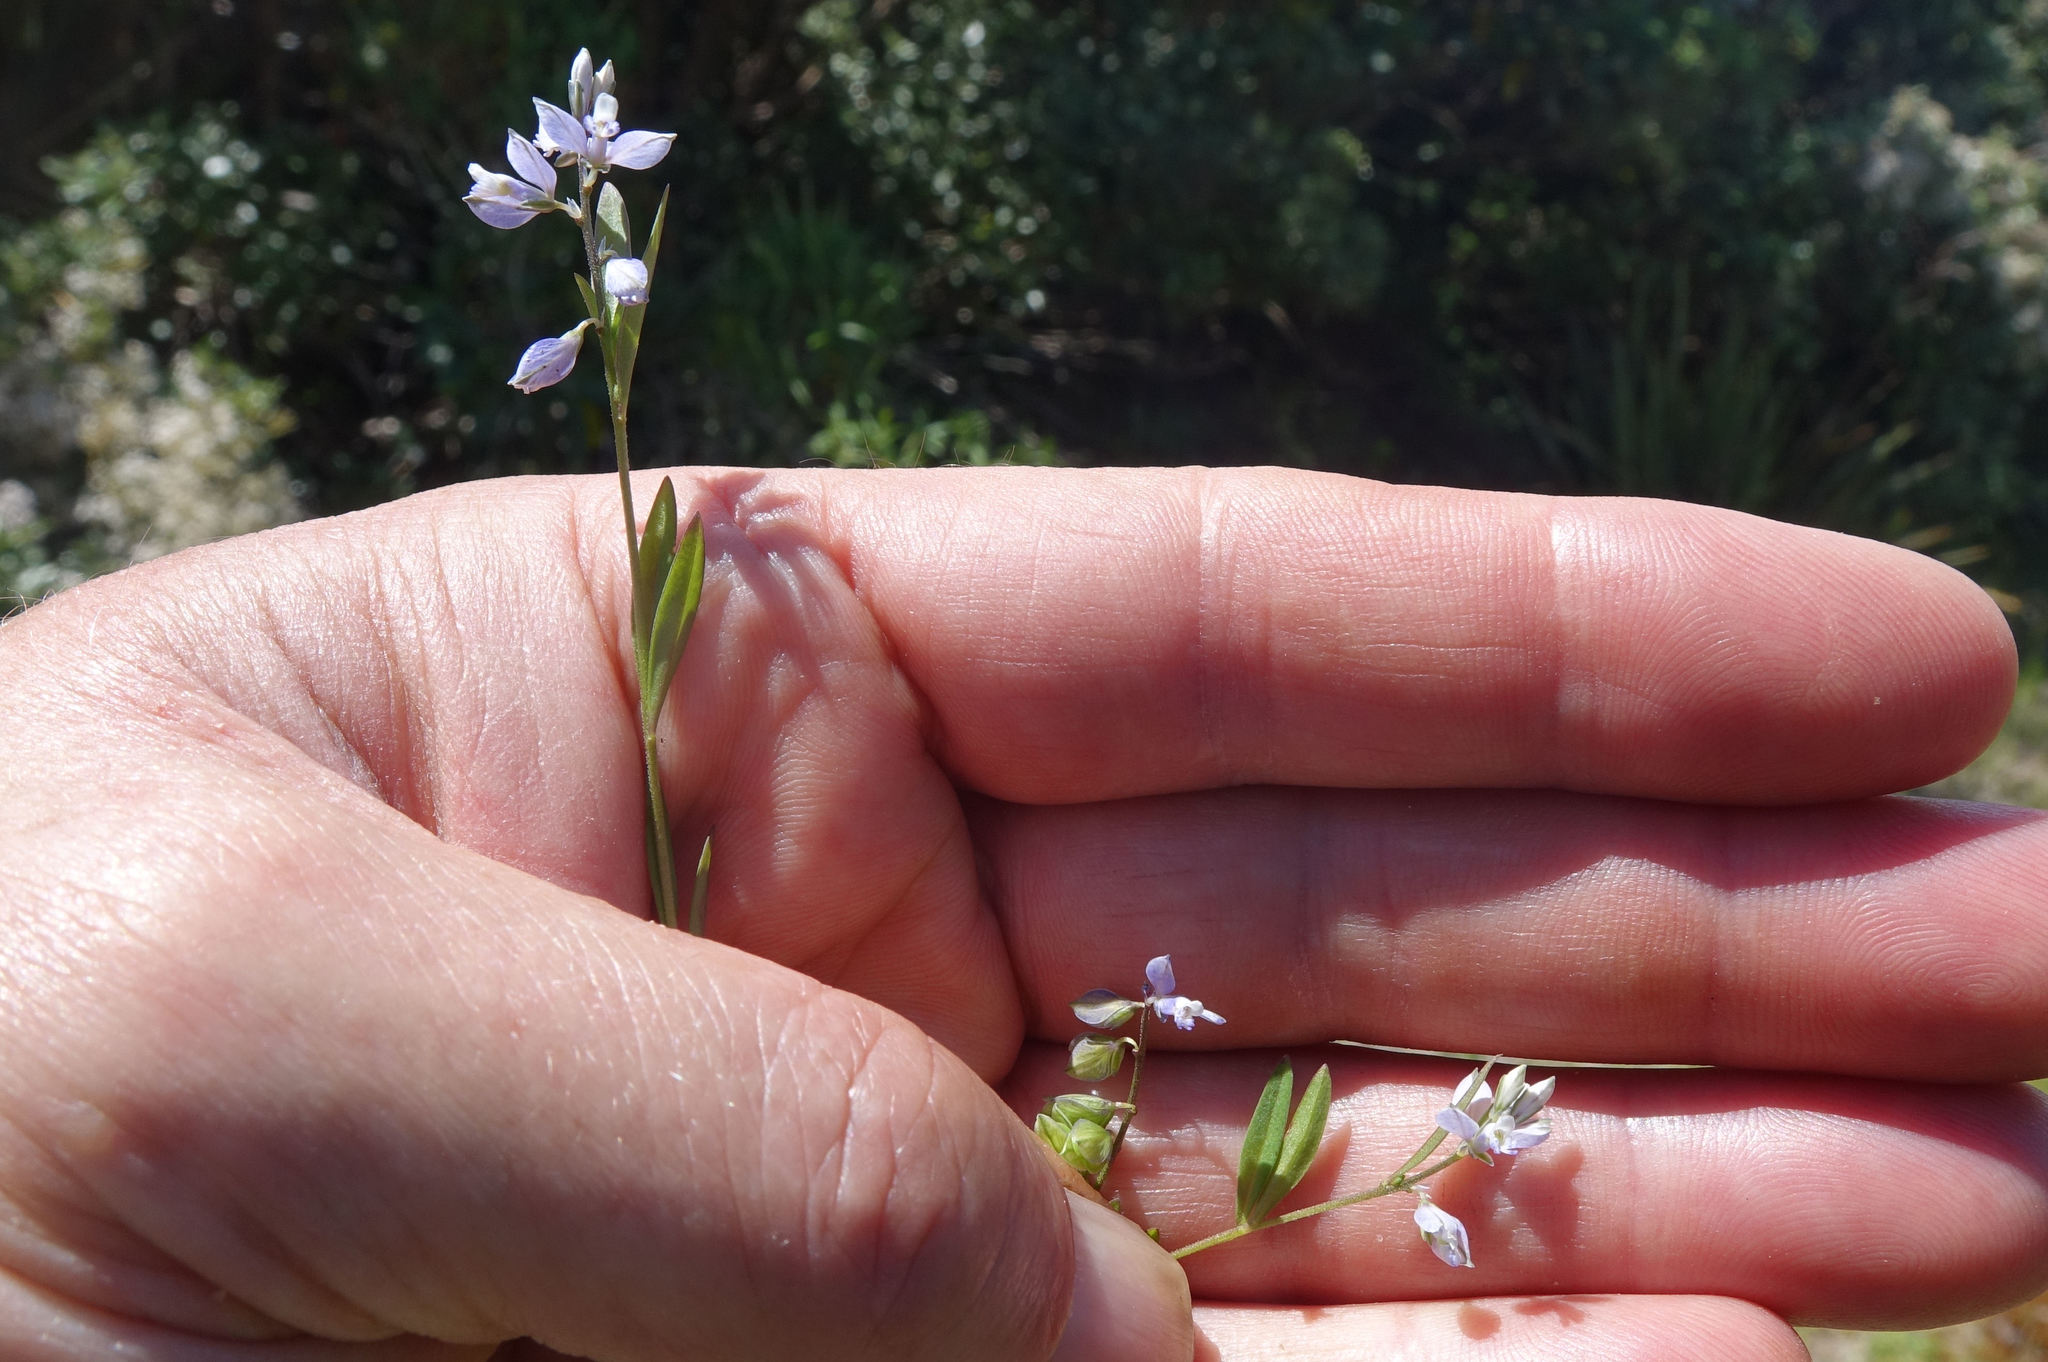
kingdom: Plantae
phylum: Tracheophyta
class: Magnoliopsida
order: Fabales
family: Polygalaceae
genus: Polygala
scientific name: Polygala serpyllifolia
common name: Heath milkwort
